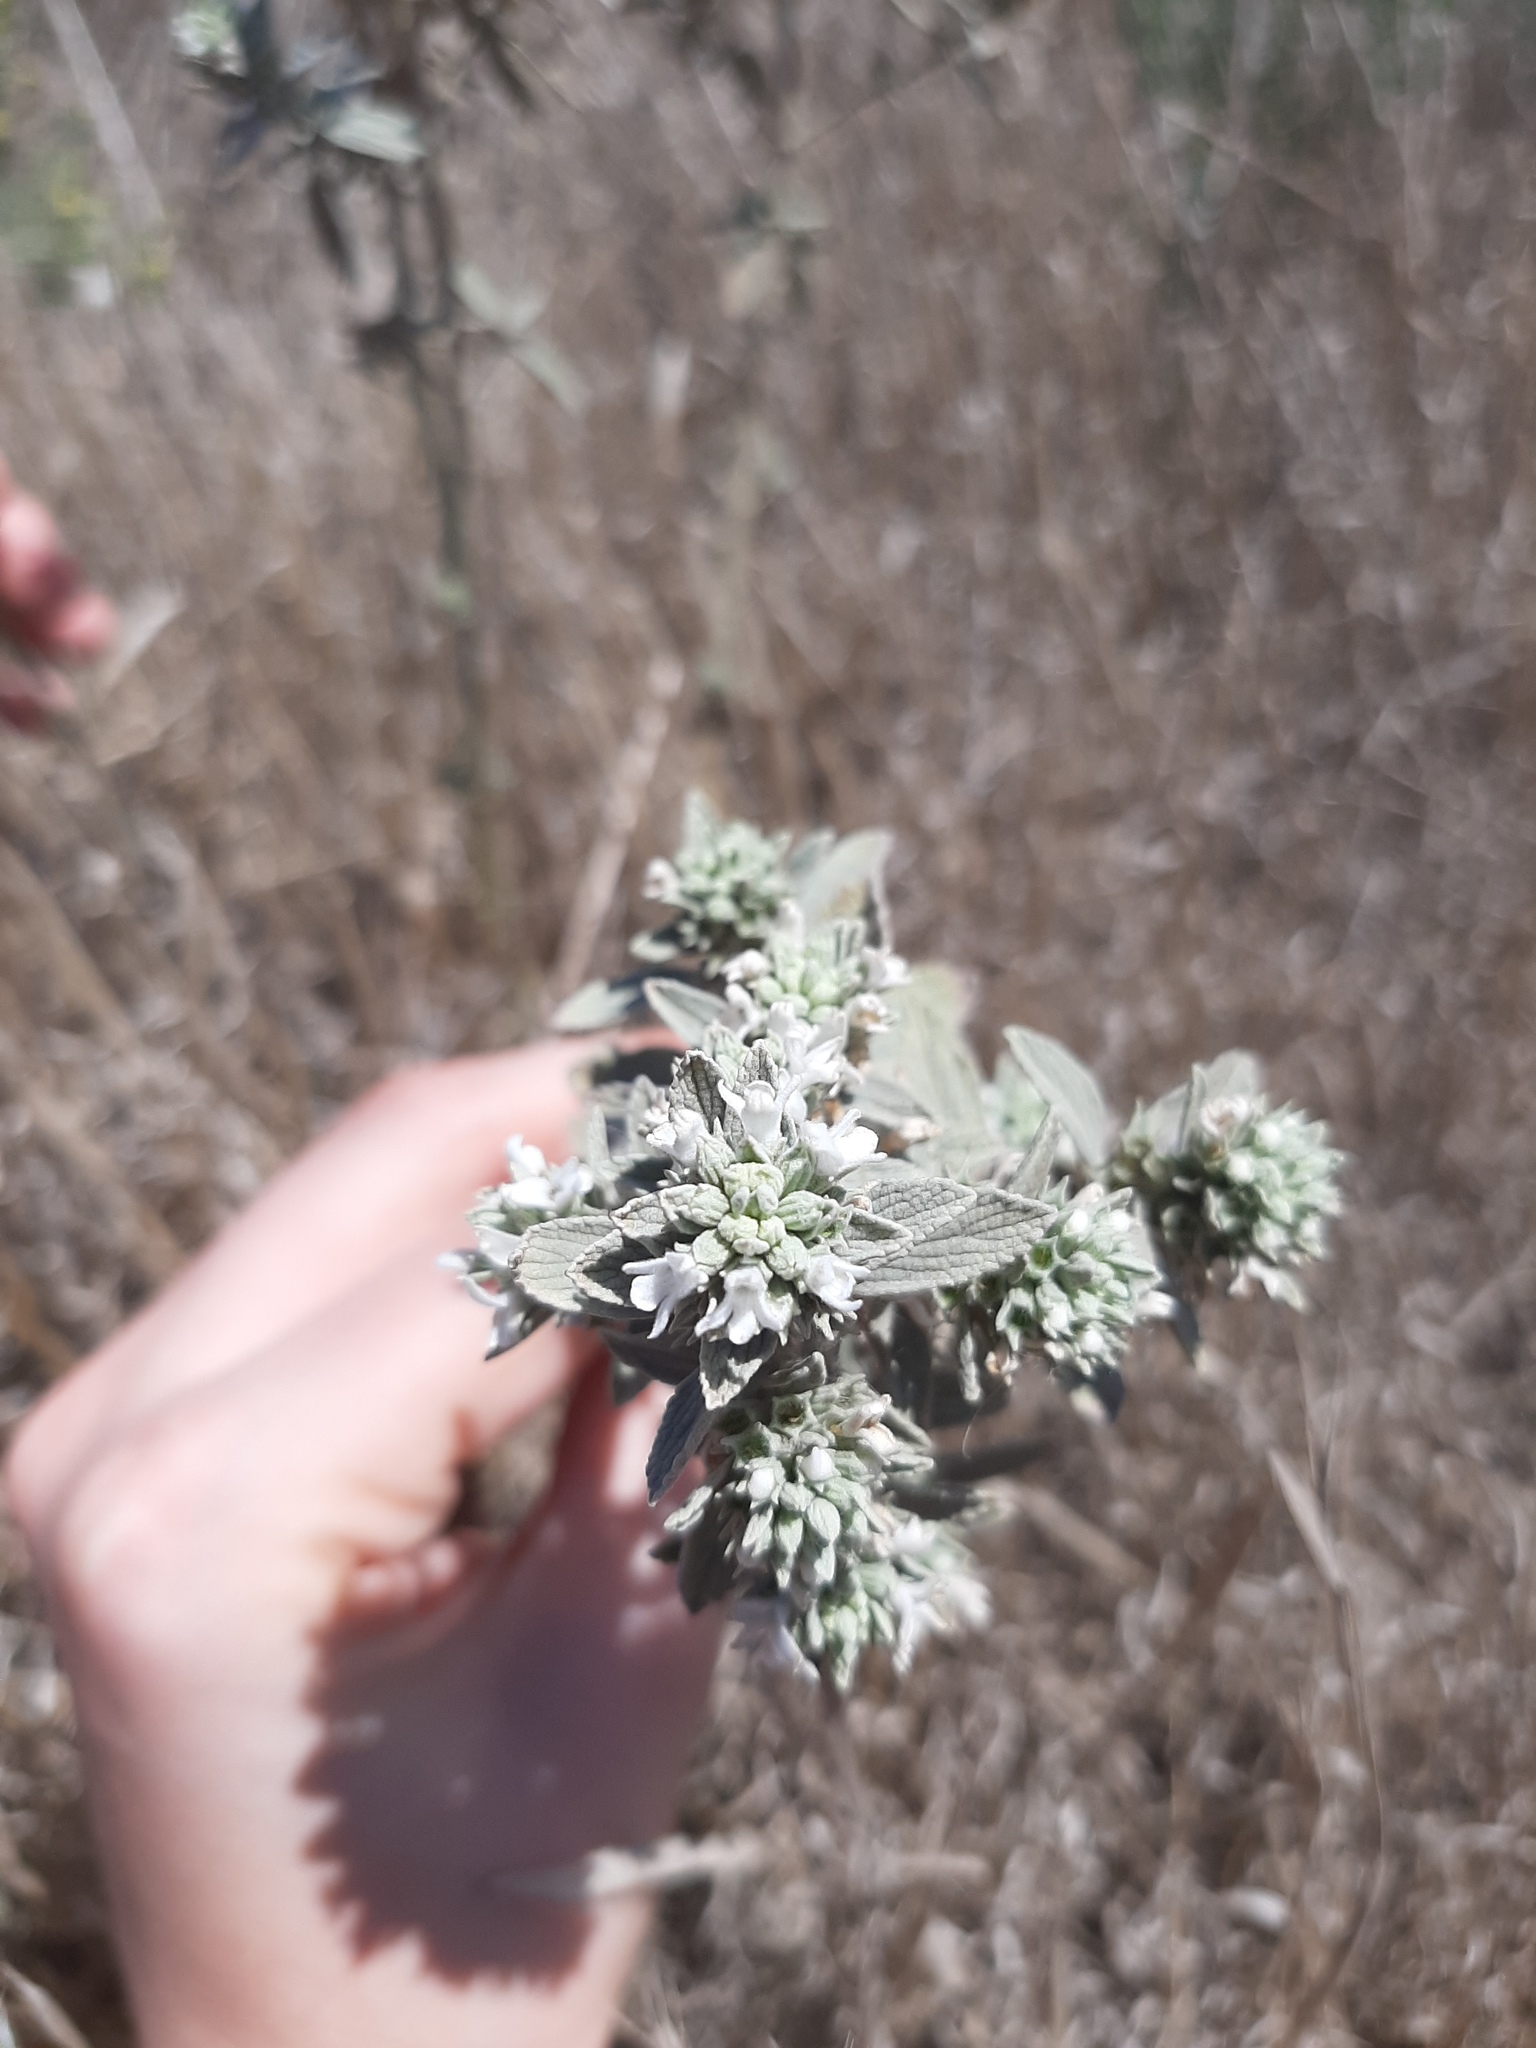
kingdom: Plantae
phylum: Tracheophyta
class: Magnoliopsida
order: Lamiales
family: Lamiaceae
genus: Marrubium
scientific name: Marrubium peregrinum
